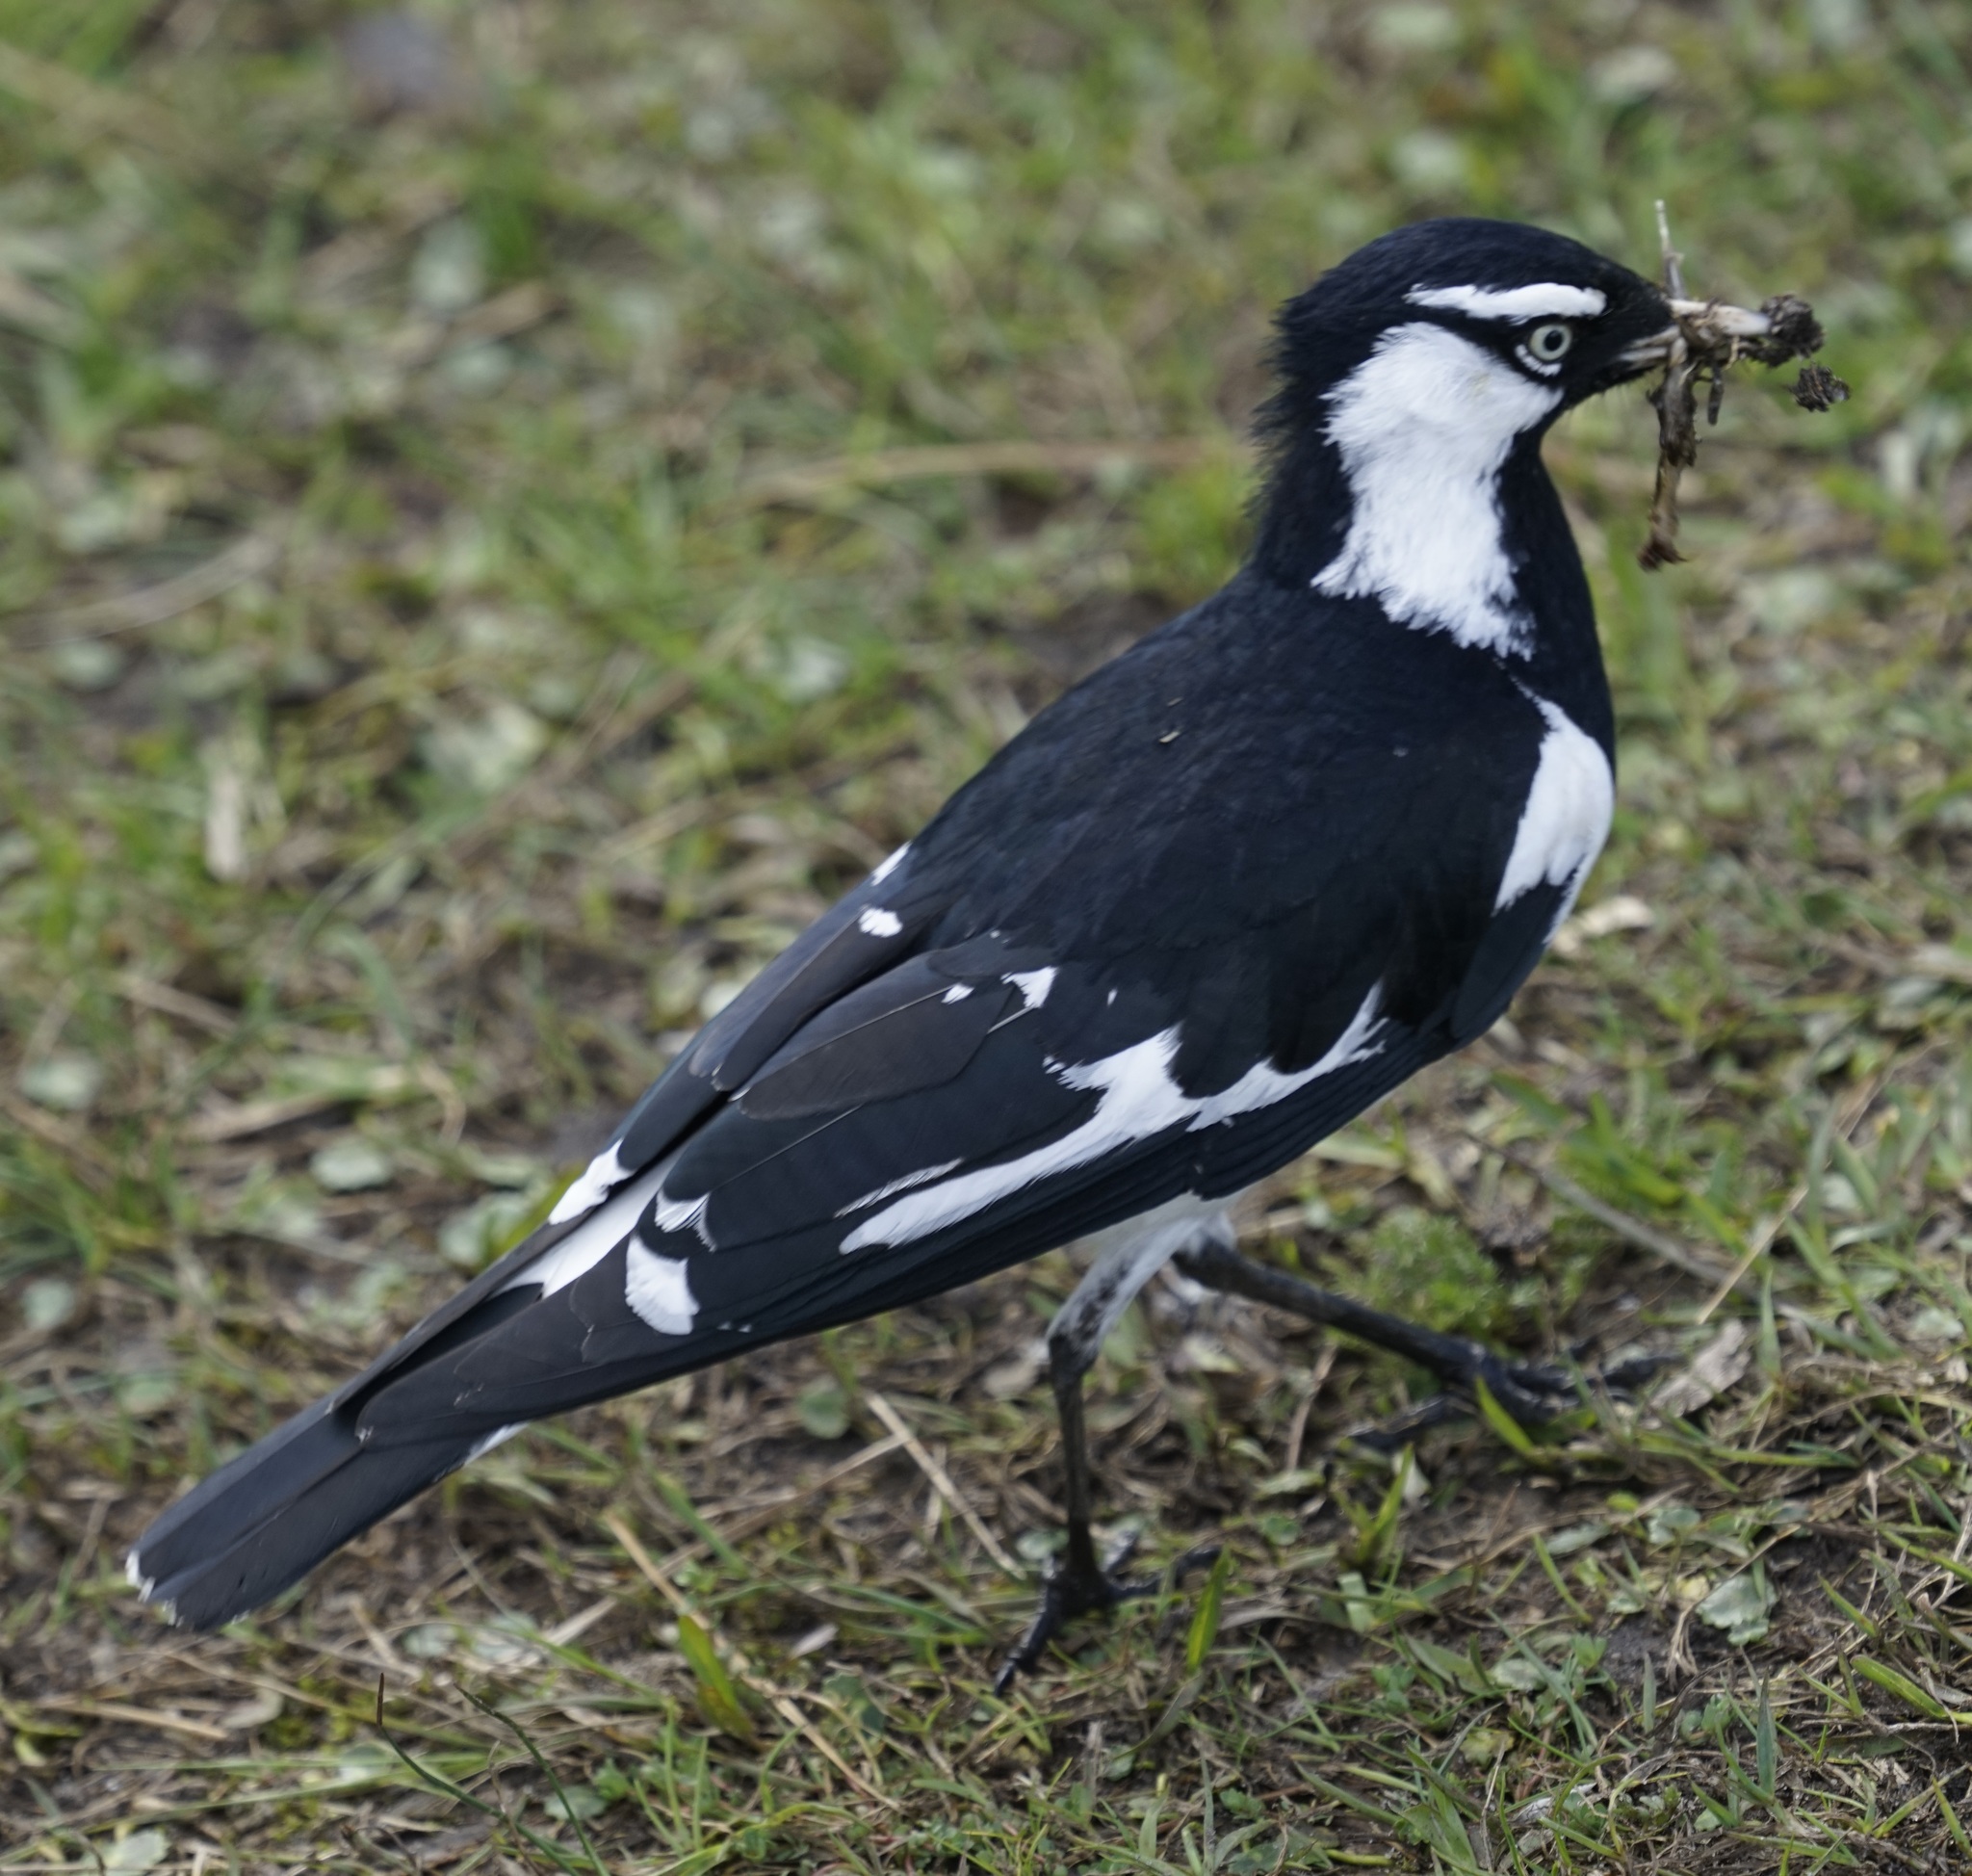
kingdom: Animalia
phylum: Chordata
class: Aves
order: Passeriformes
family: Monarchidae
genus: Grallina
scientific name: Grallina cyanoleuca
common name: Magpie-lark
